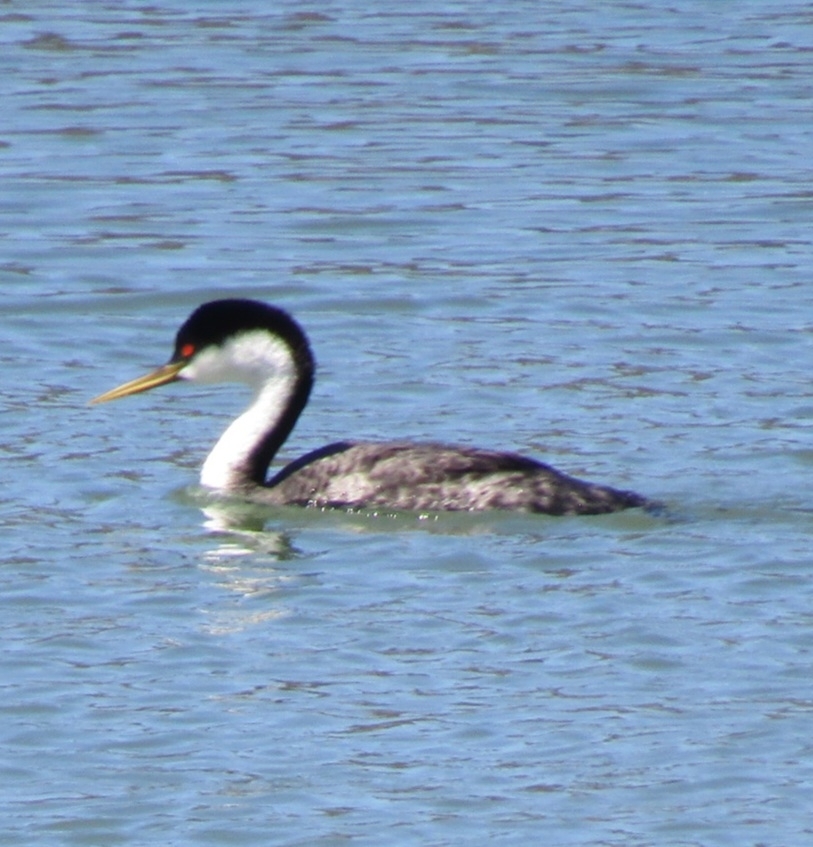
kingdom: Animalia
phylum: Chordata
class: Aves
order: Podicipediformes
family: Podicipedidae
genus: Aechmophorus
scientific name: Aechmophorus occidentalis
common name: Western grebe
